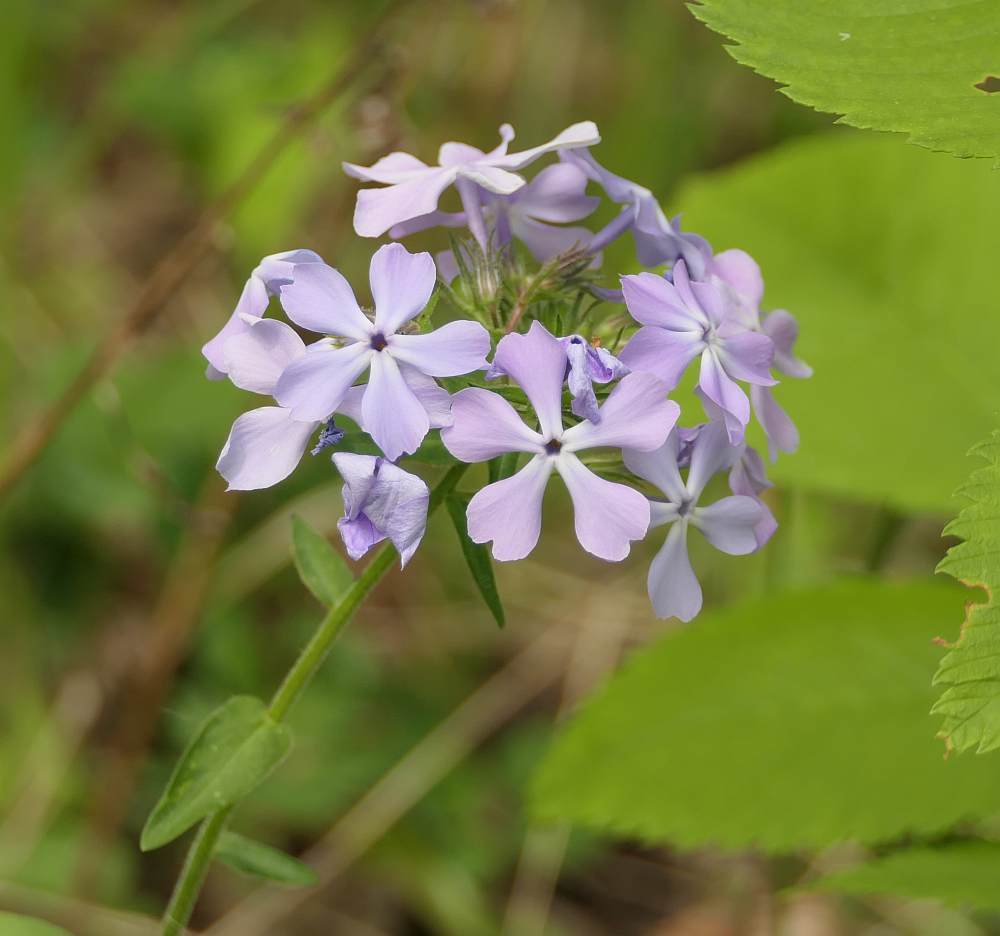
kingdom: Plantae
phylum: Tracheophyta
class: Magnoliopsida
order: Ericales
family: Polemoniaceae
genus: Phlox
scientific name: Phlox divaricata
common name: Blue phlox
